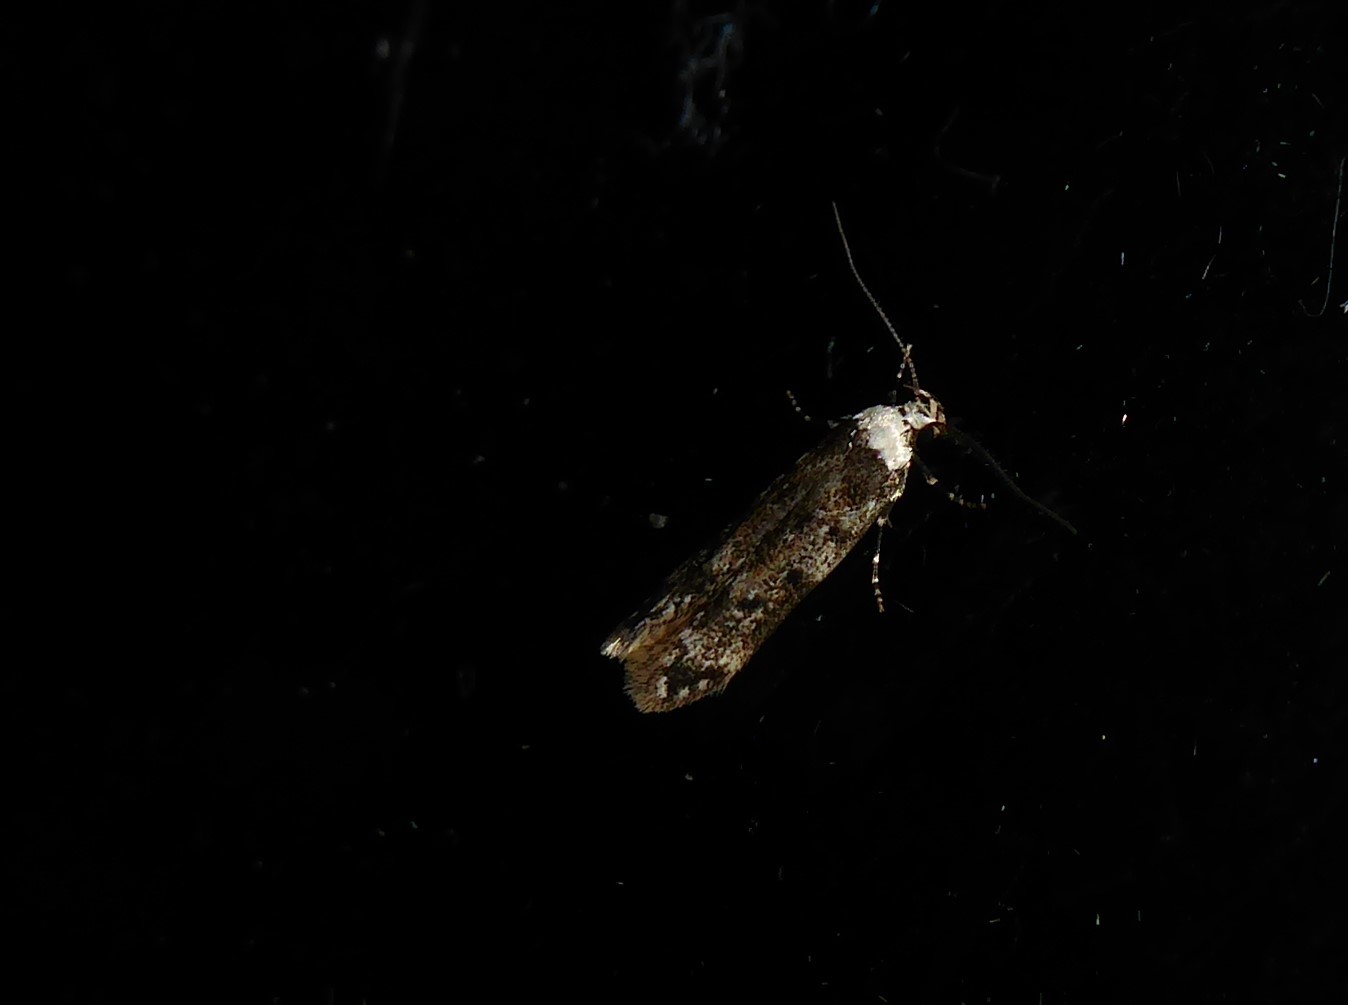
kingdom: Animalia
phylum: Arthropoda
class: Insecta
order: Lepidoptera
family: Oecophoridae
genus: Endrosis
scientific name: Endrosis sarcitrella
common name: White-shouldered house moth
